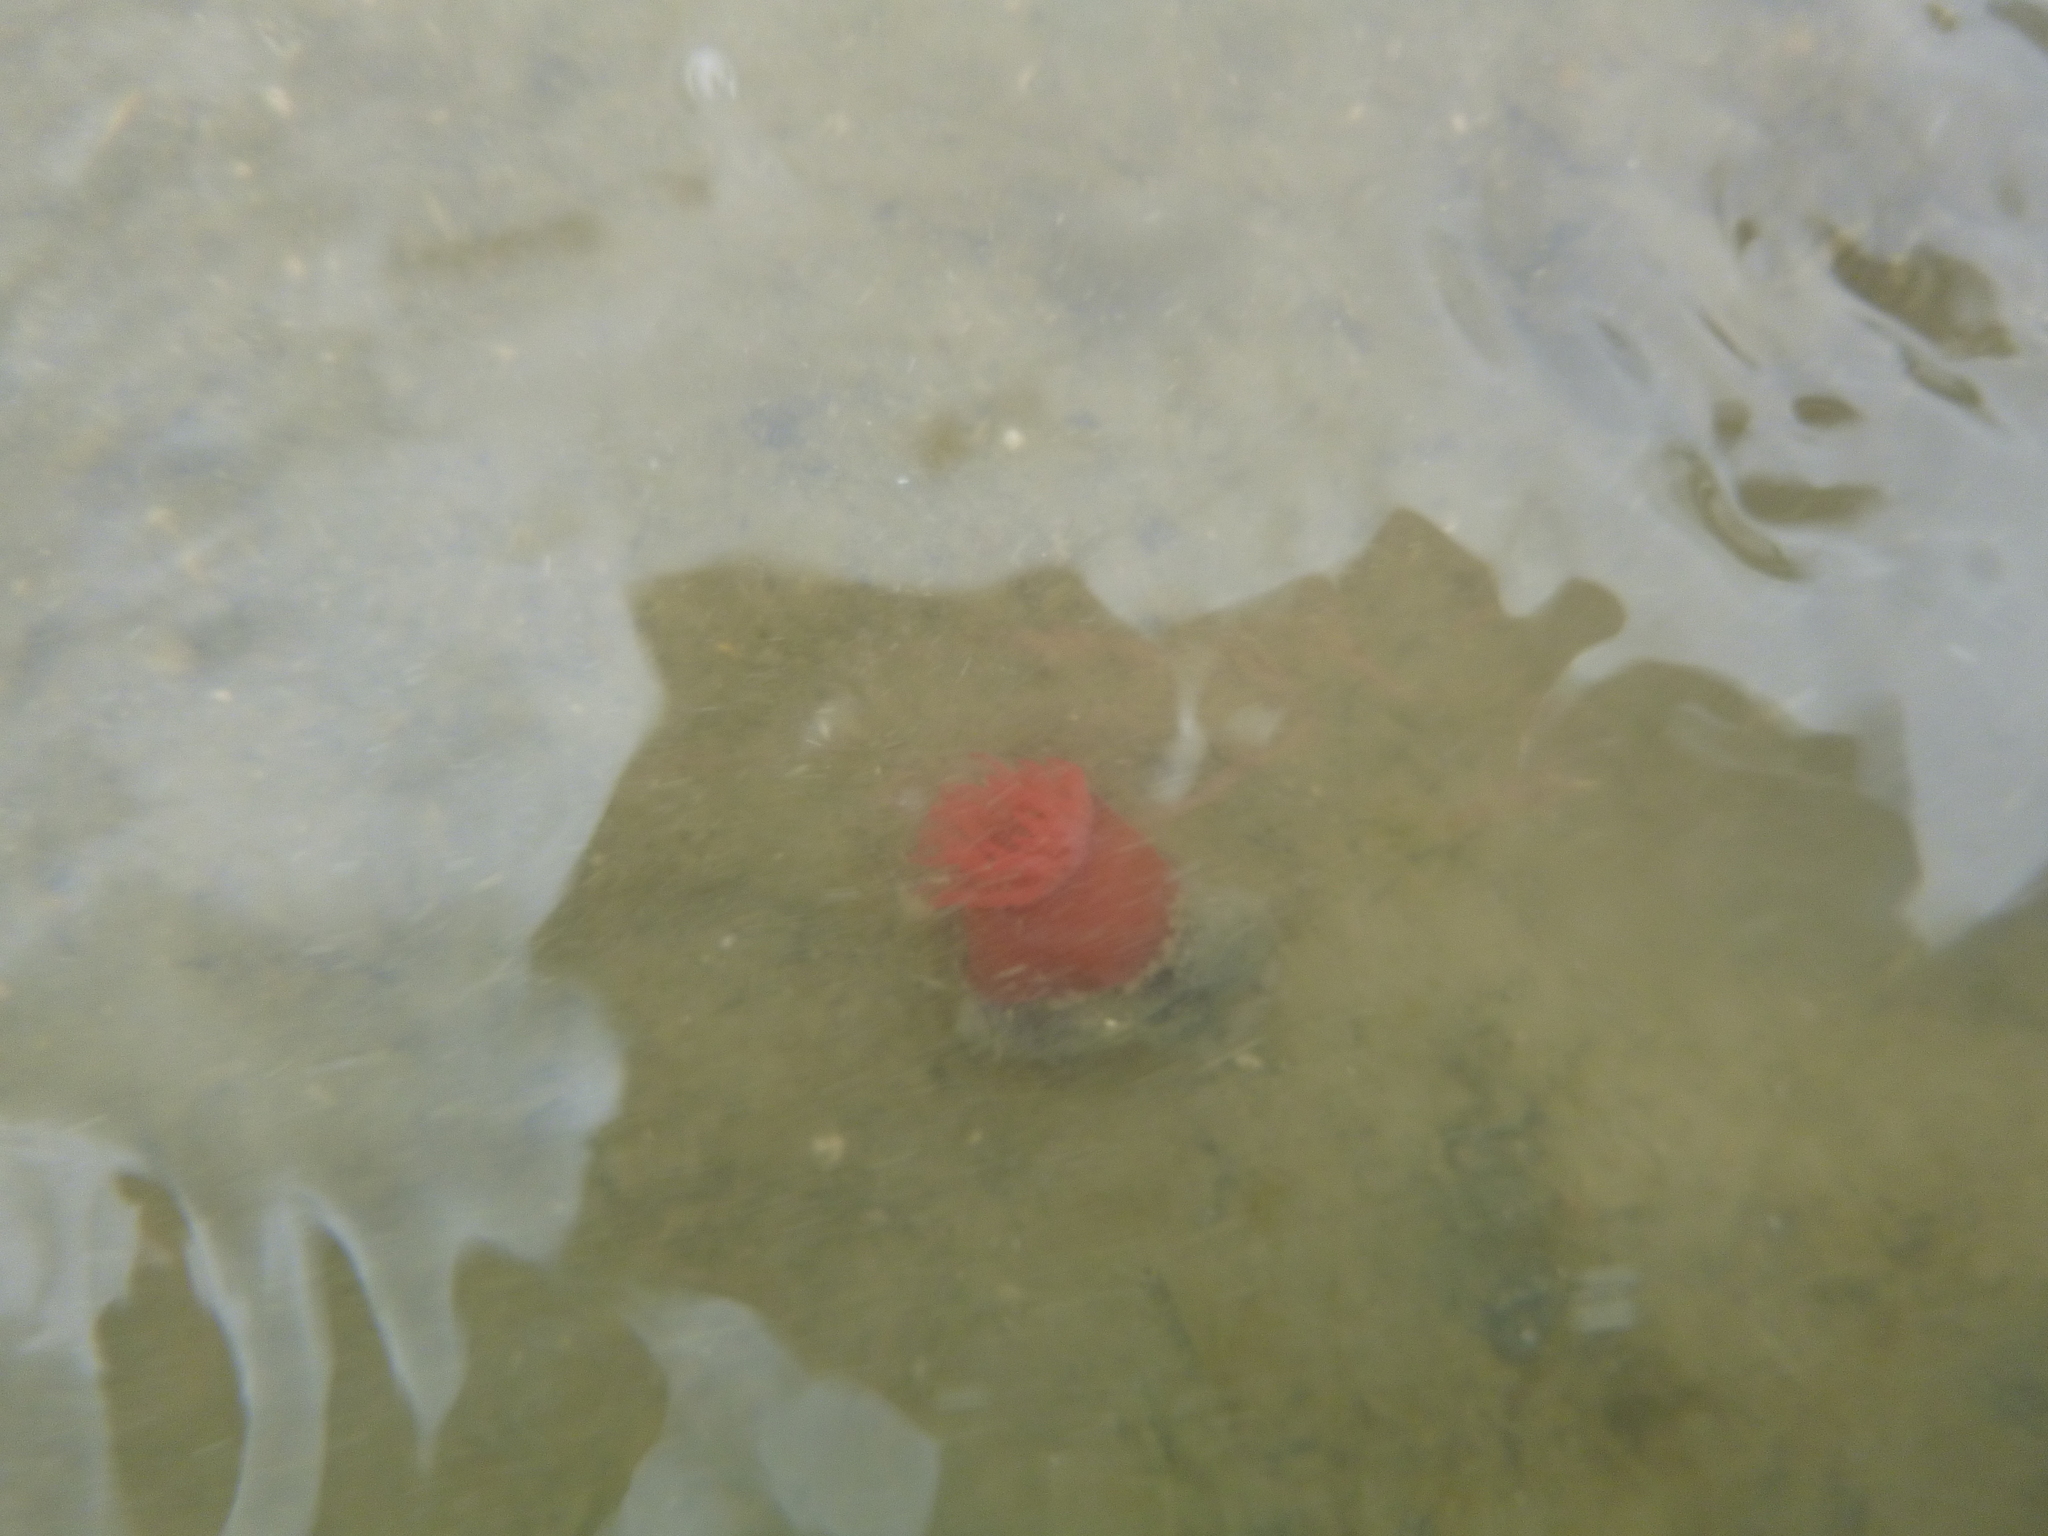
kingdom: Animalia
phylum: Cnidaria
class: Anthozoa
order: Actiniaria
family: Actiniidae
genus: Actinia
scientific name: Actinia tenebrosa
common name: Waratah anemone
